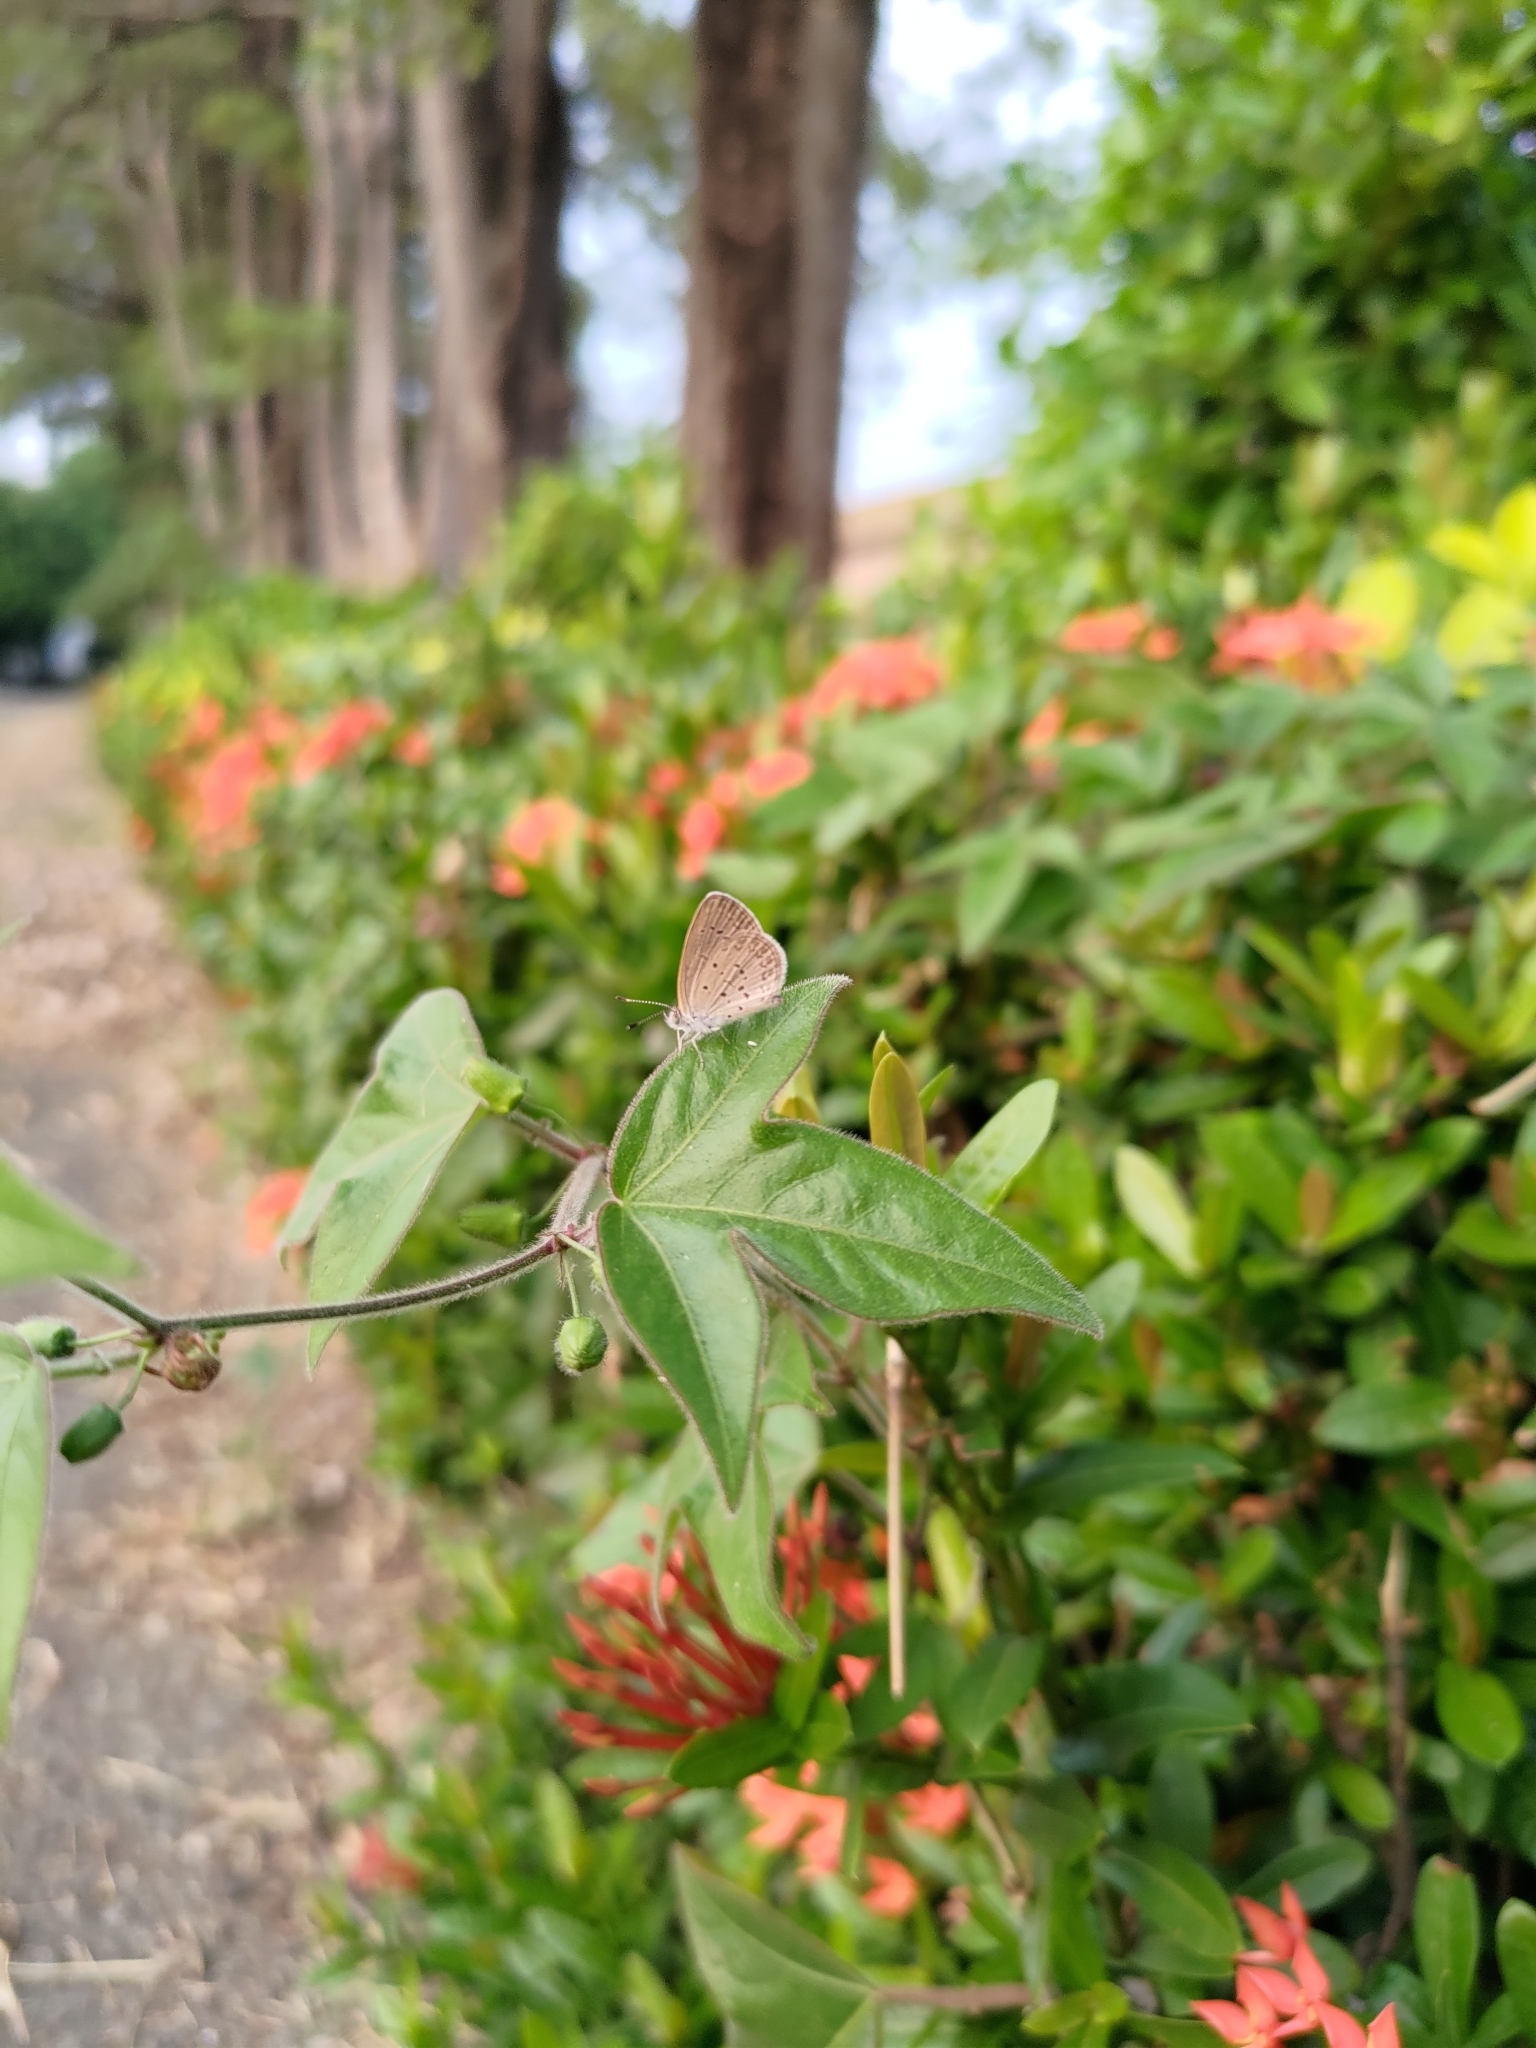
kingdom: Animalia
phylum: Arthropoda
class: Insecta
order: Lepidoptera
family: Lycaenidae
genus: Zizina
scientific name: Zizina otis
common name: Lesser grass blue
